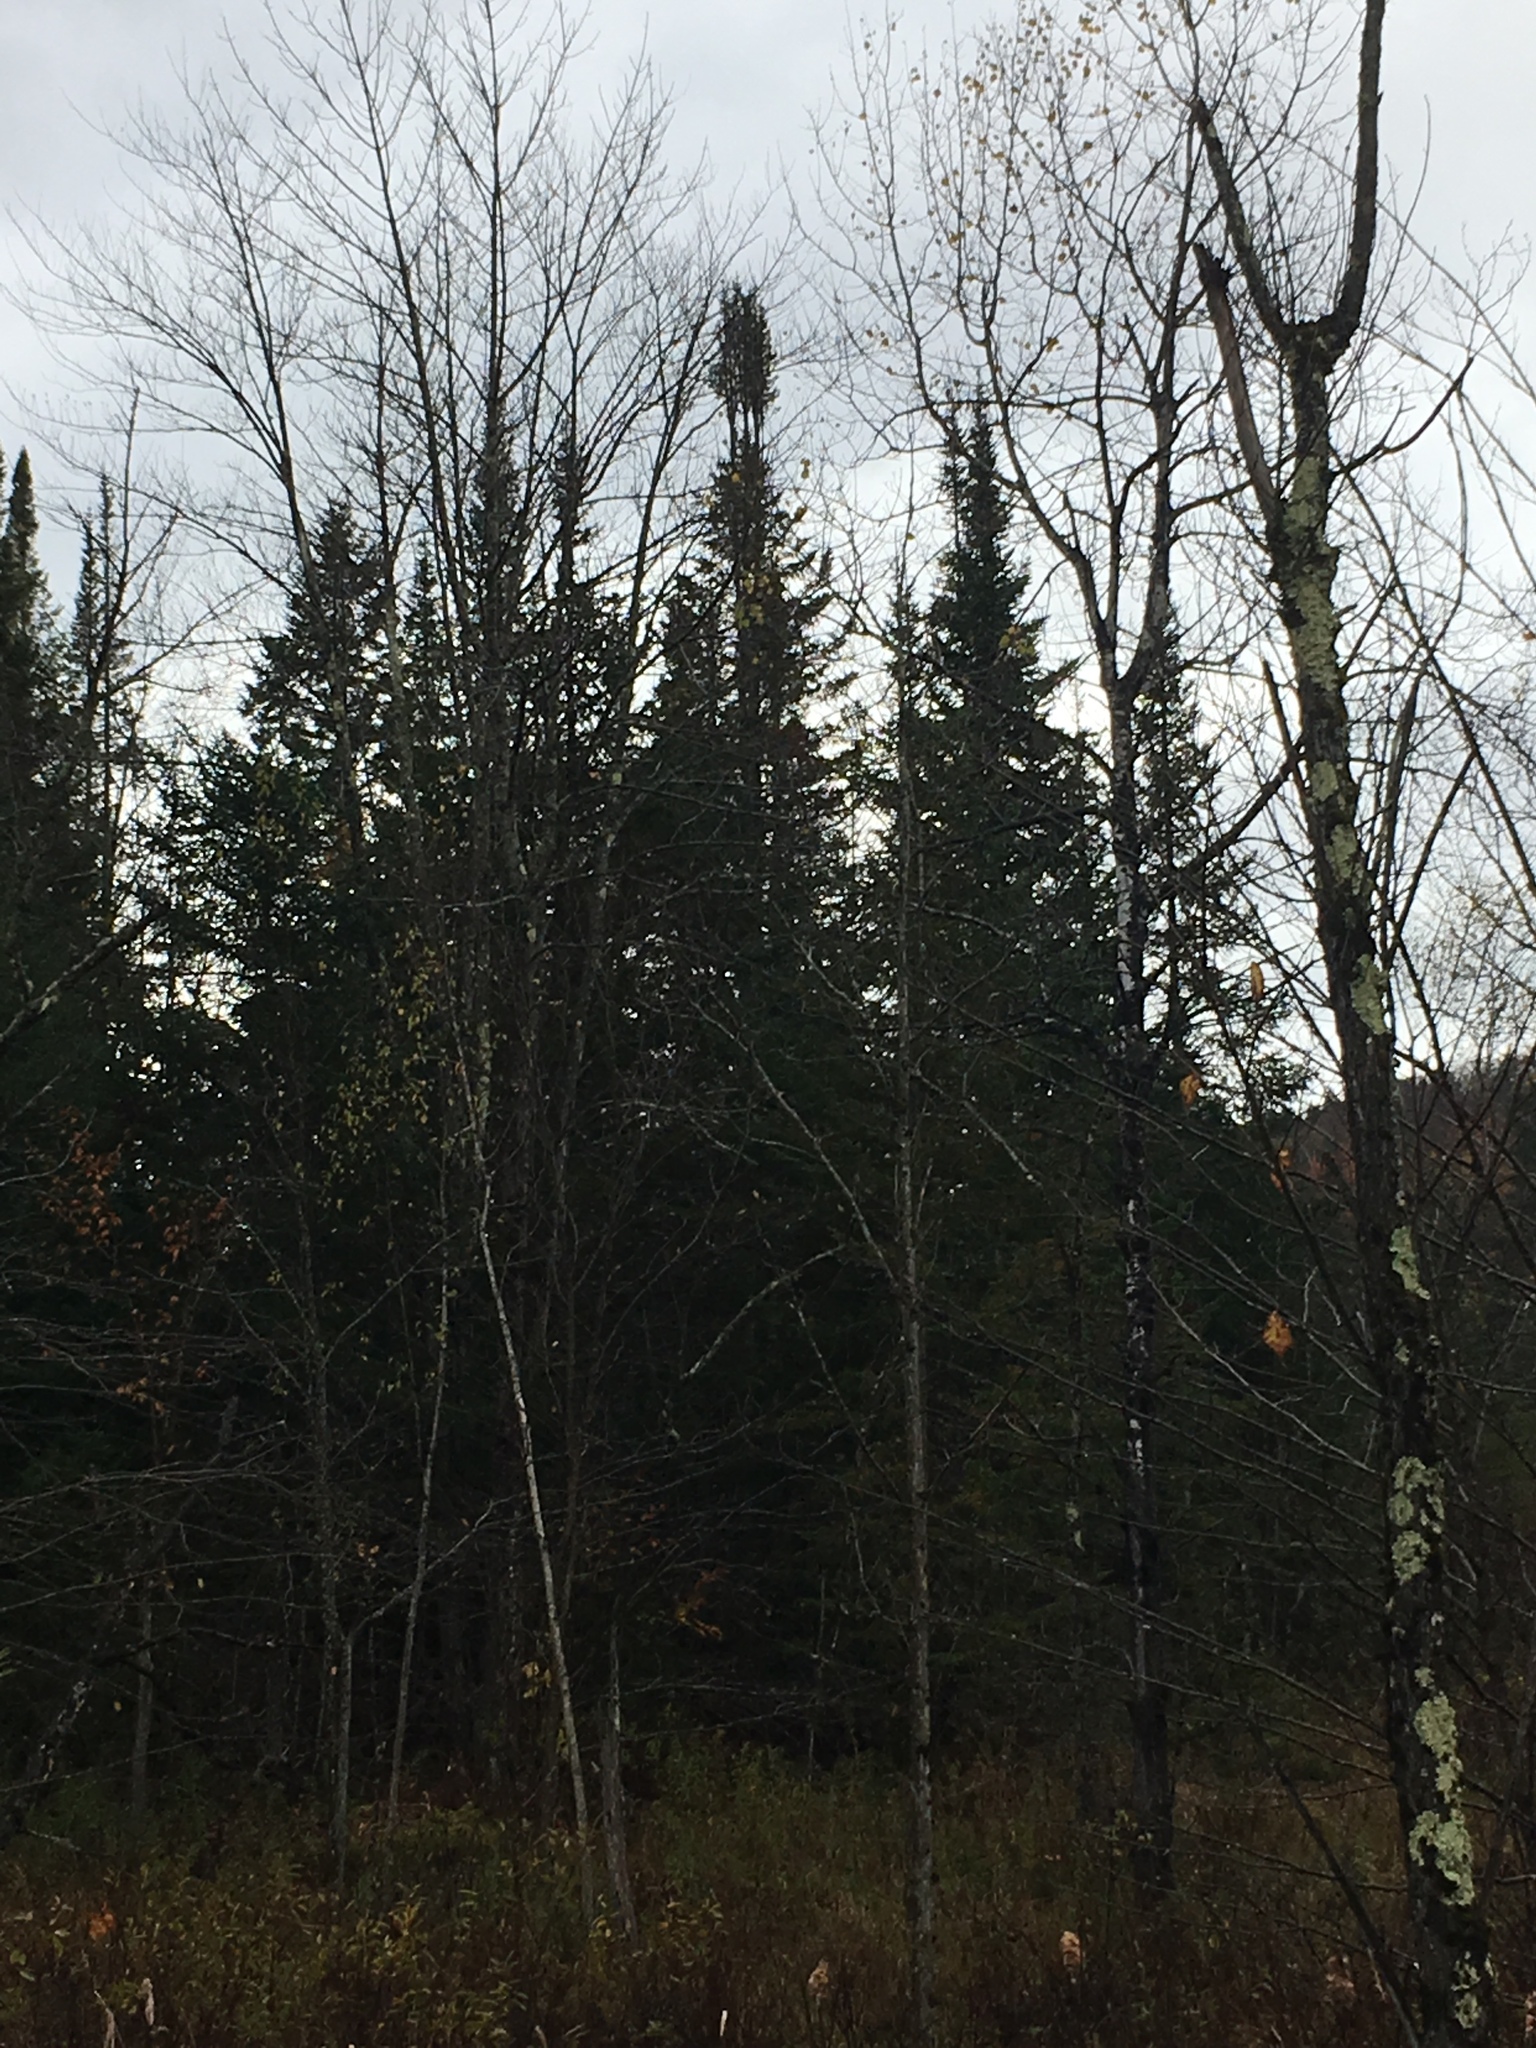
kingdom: Plantae
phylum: Tracheophyta
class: Pinopsida
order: Pinales
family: Pinaceae
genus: Abies
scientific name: Abies balsamea
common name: Balsam fir
